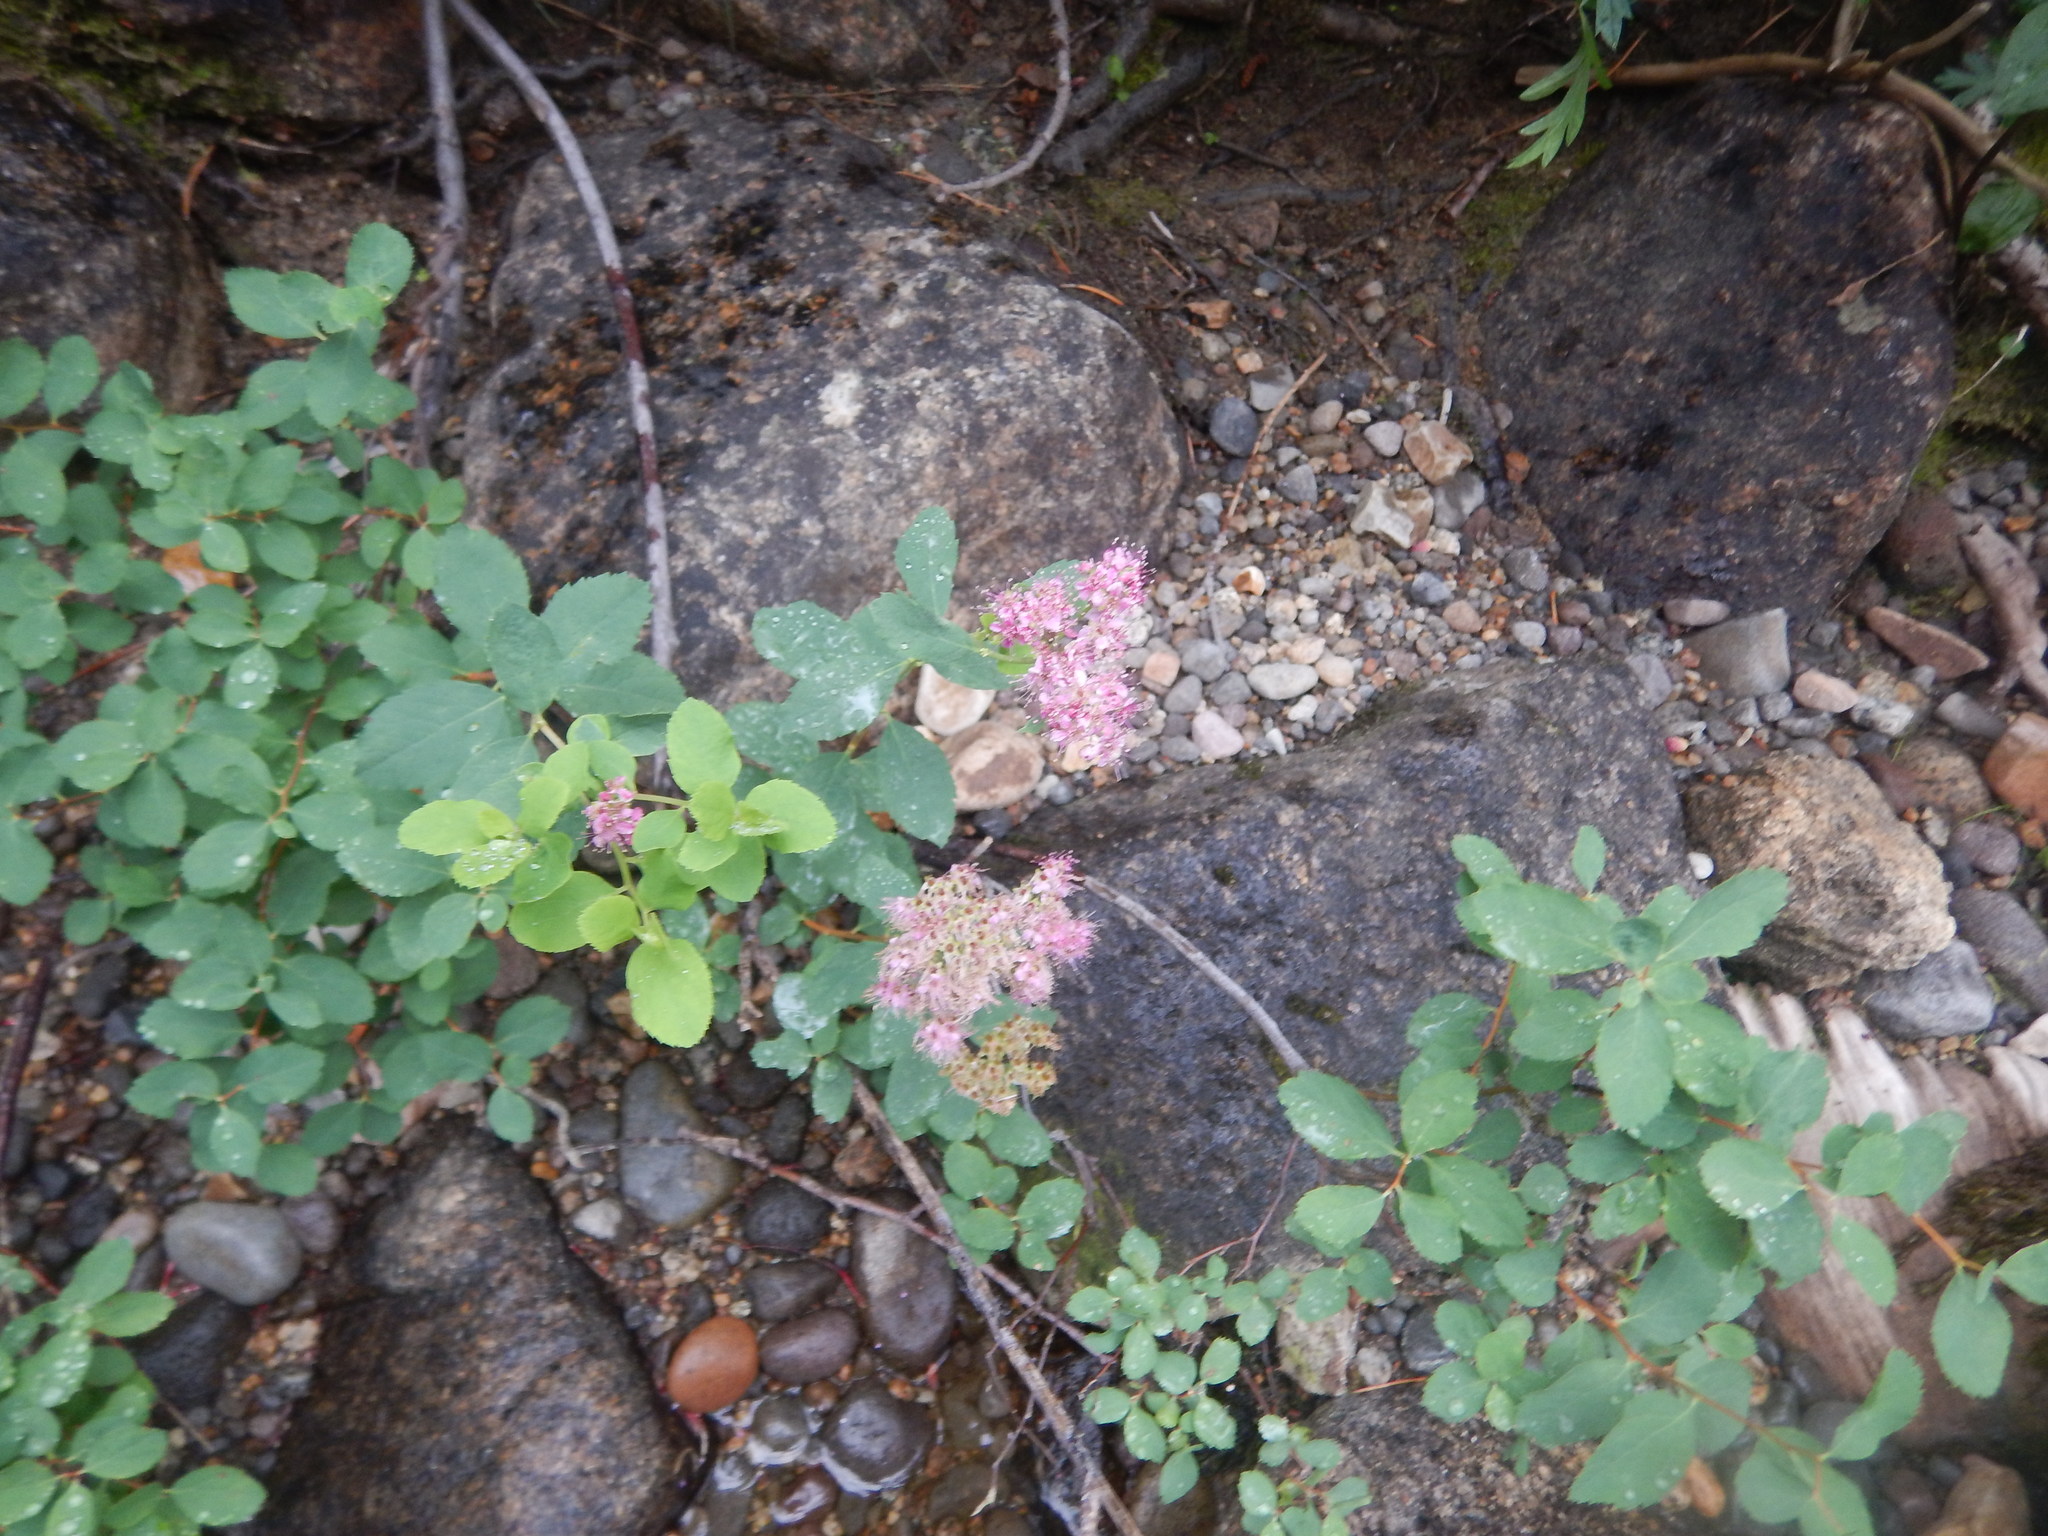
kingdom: Plantae
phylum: Tracheophyta
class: Magnoliopsida
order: Rosales
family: Rosaceae
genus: Spiraea
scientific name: Spiraea splendens
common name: Subalpine meadowsweet
